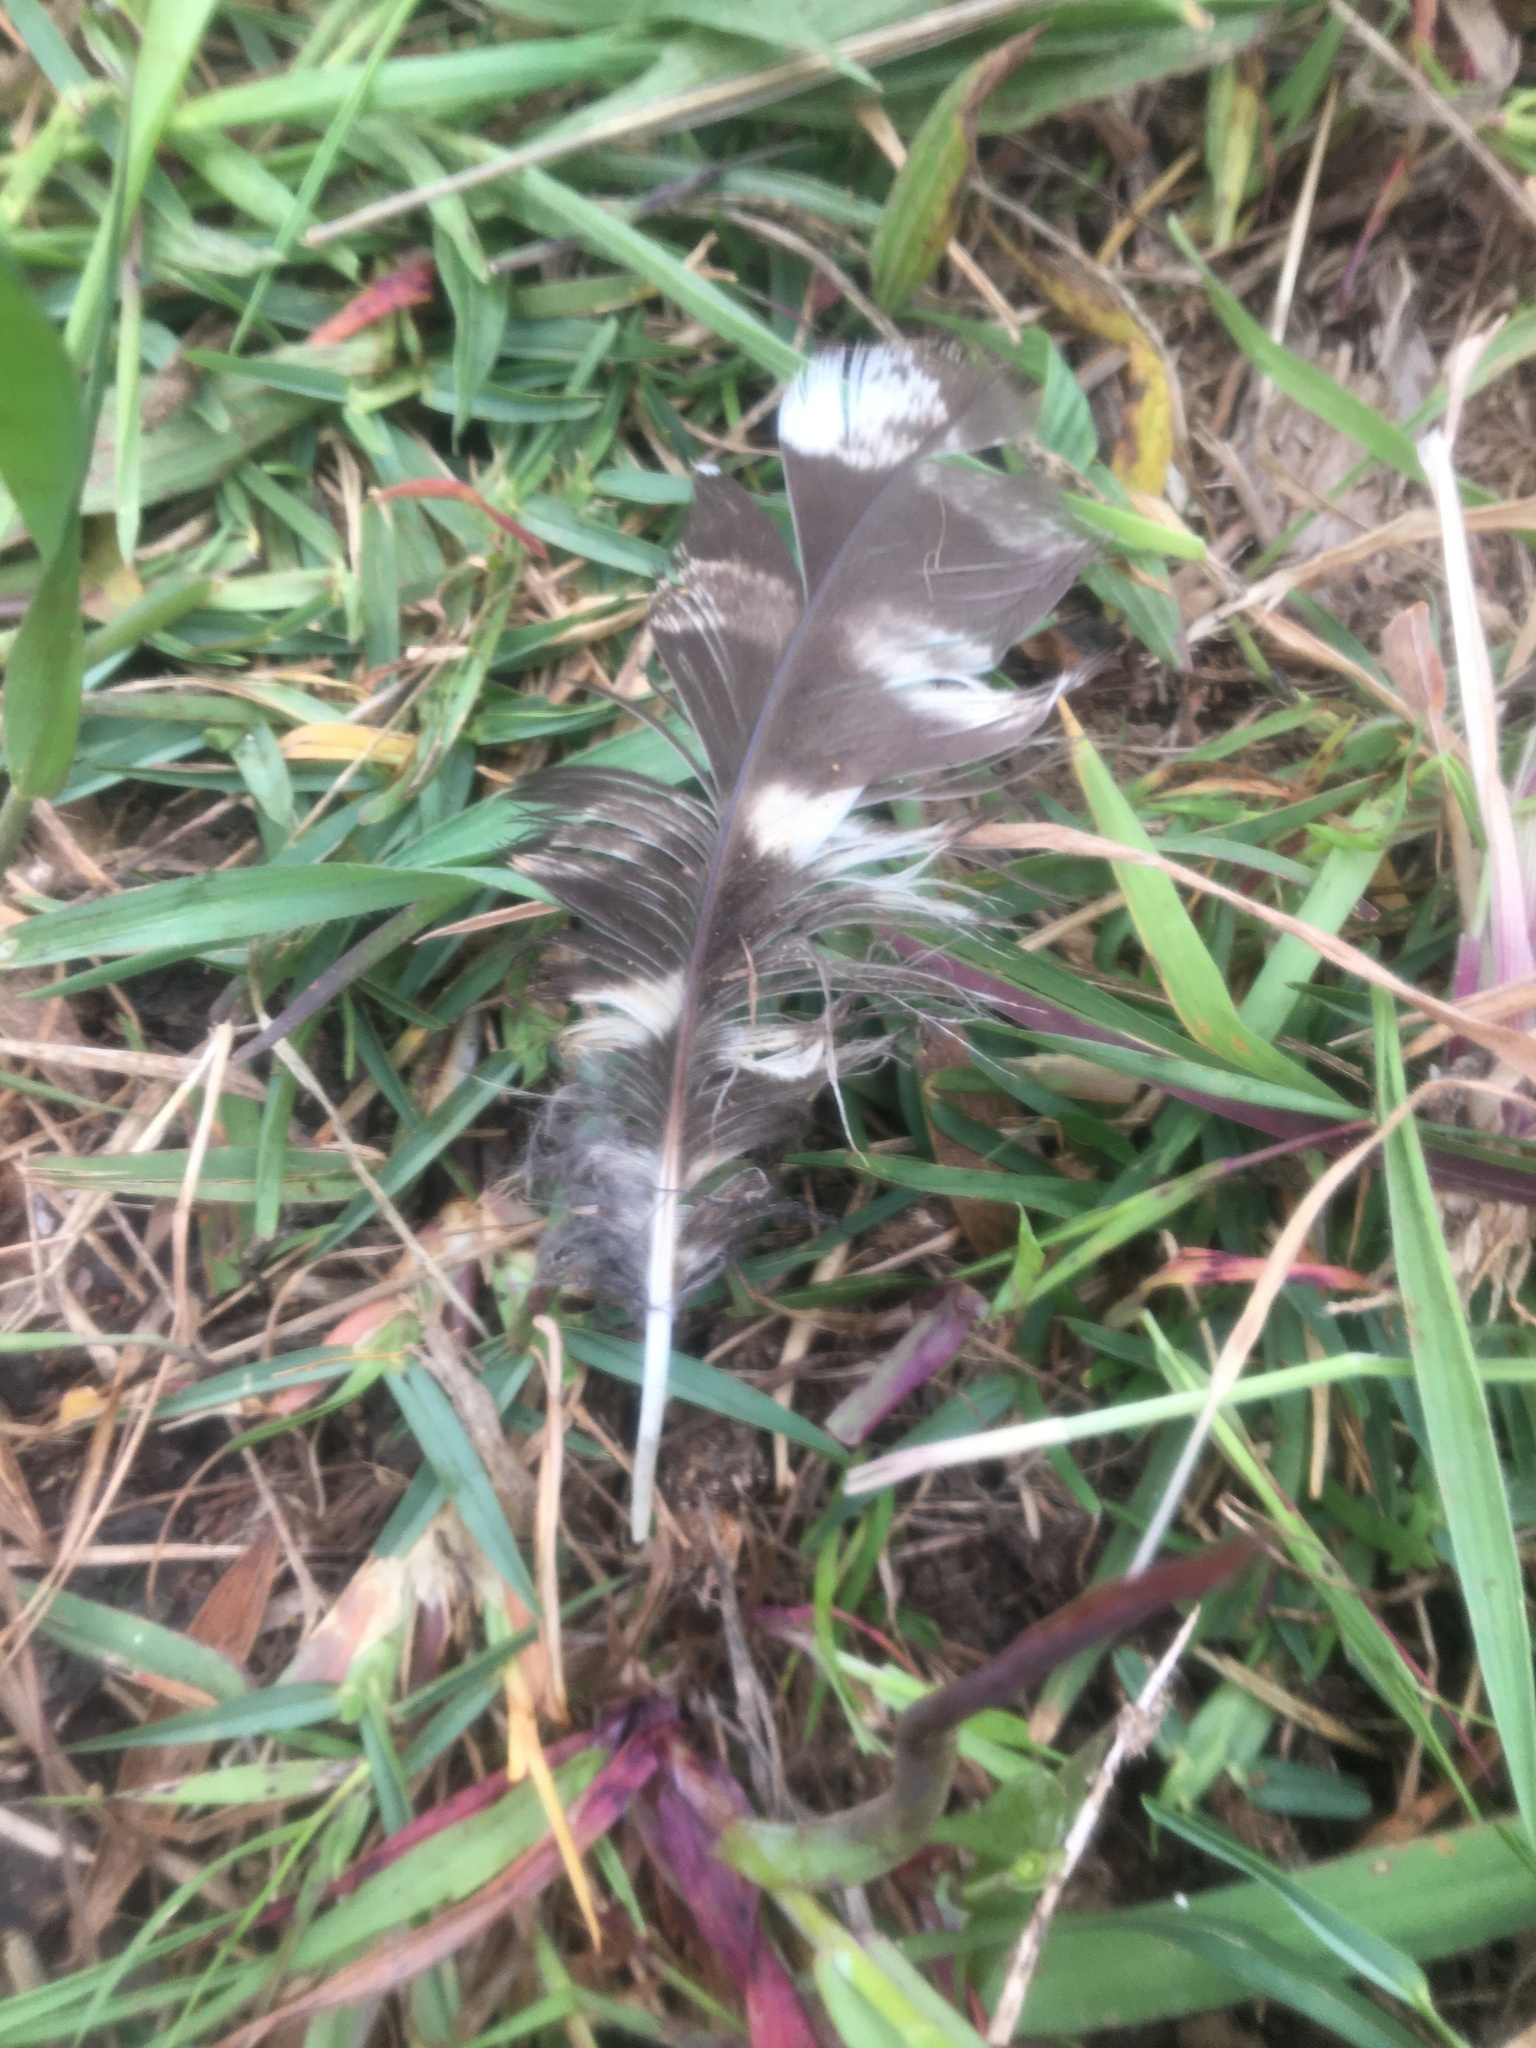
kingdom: Animalia
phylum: Chordata
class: Aves
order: Strigiformes
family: Strigidae
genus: Bubo
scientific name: Bubo africanus
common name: Spotted eagle-owl
